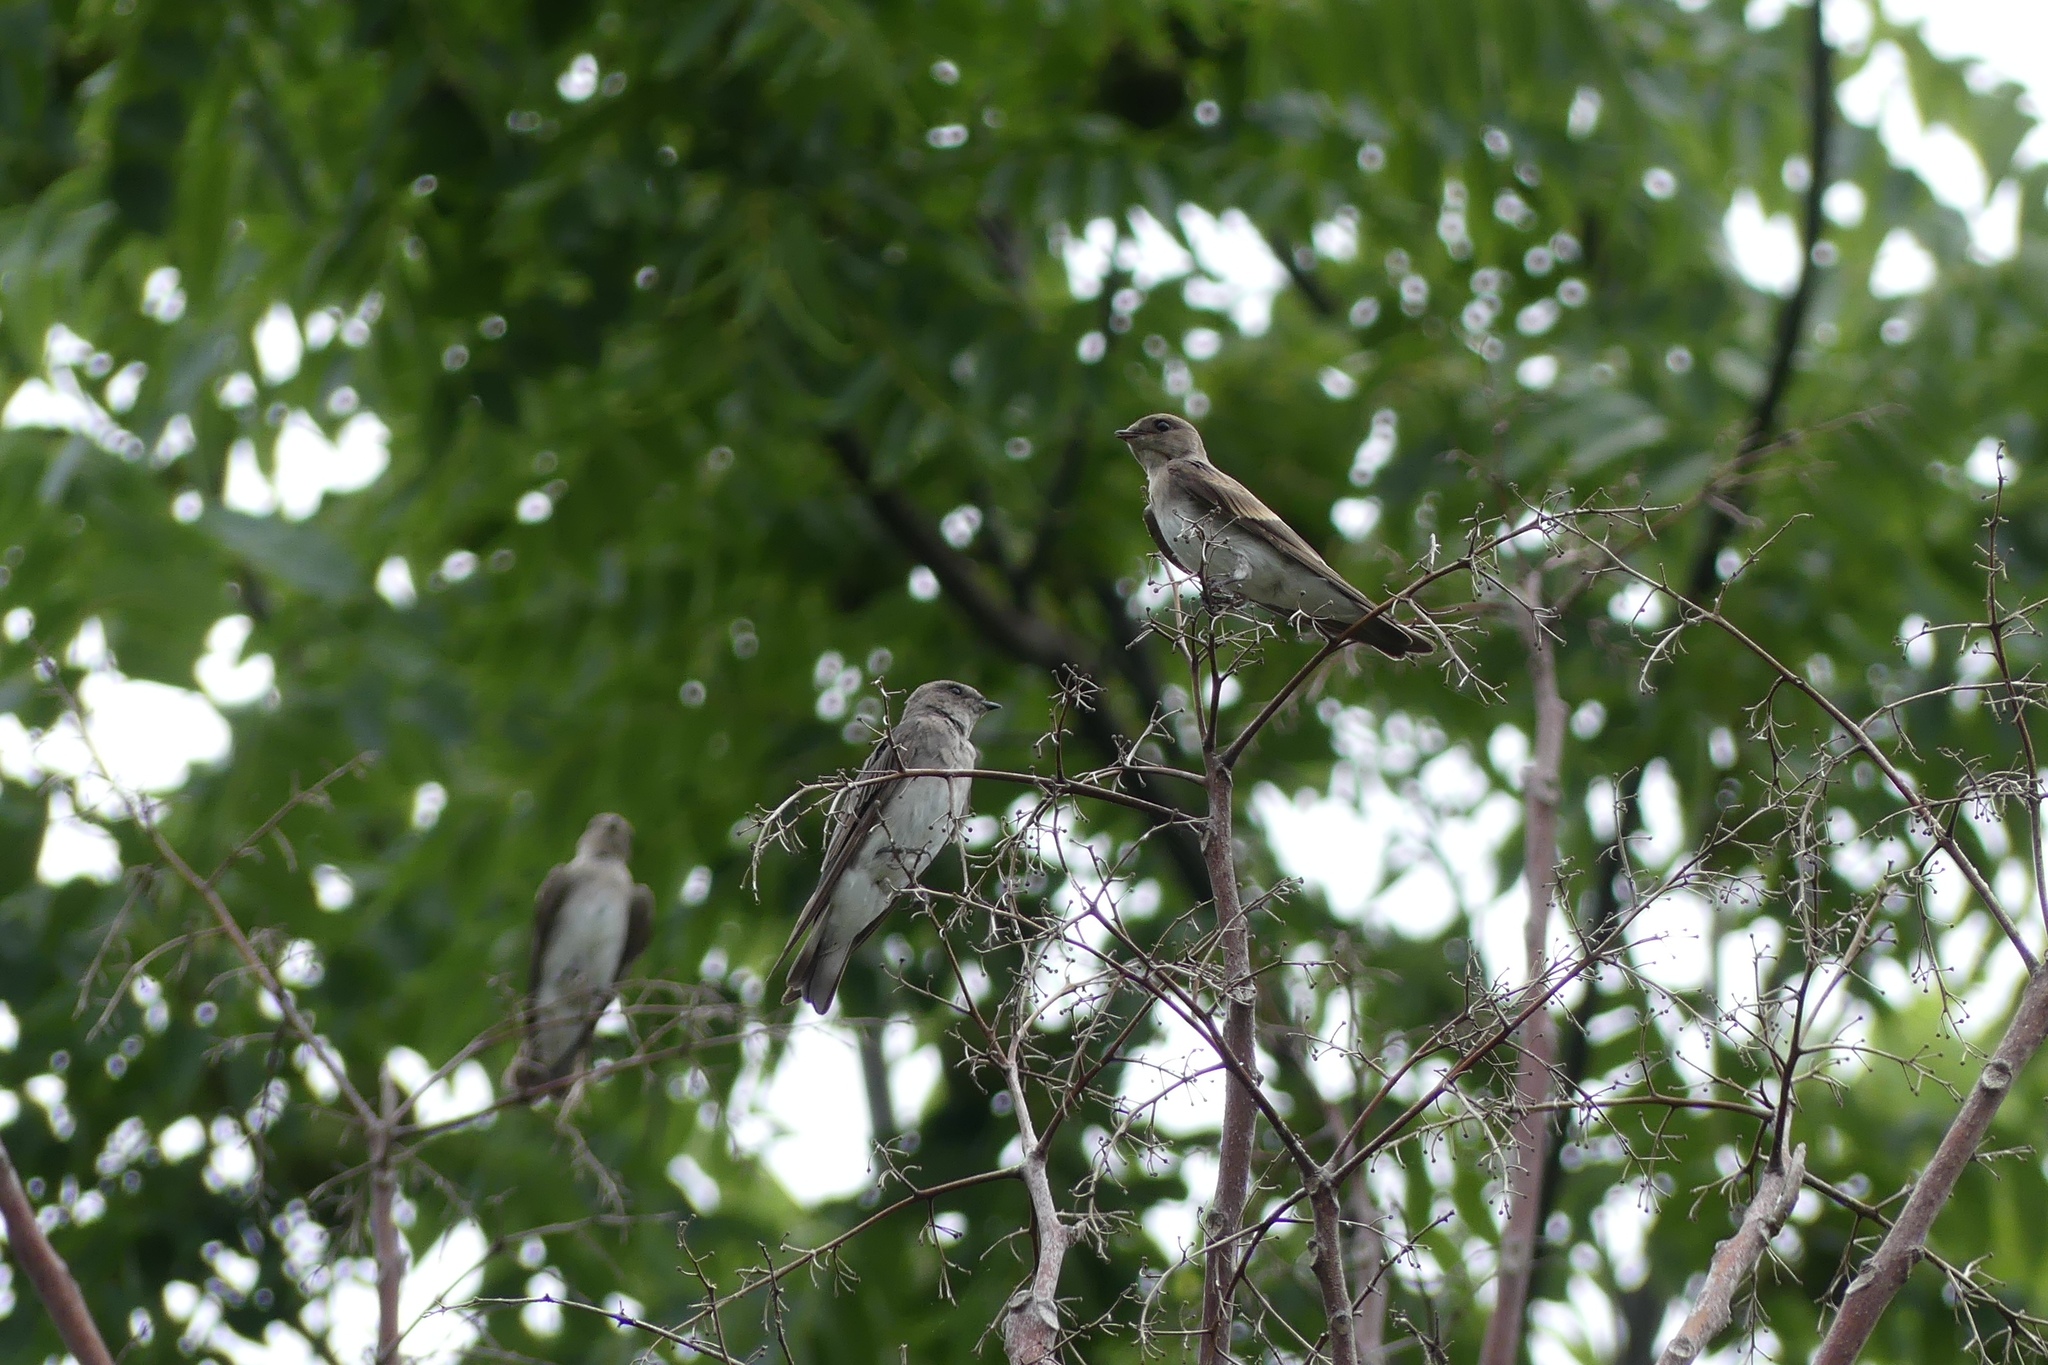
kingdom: Animalia
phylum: Chordata
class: Aves
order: Passeriformes
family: Hirundinidae
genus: Stelgidopteryx
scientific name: Stelgidopteryx serripennis
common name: Northern rough-winged swallow
